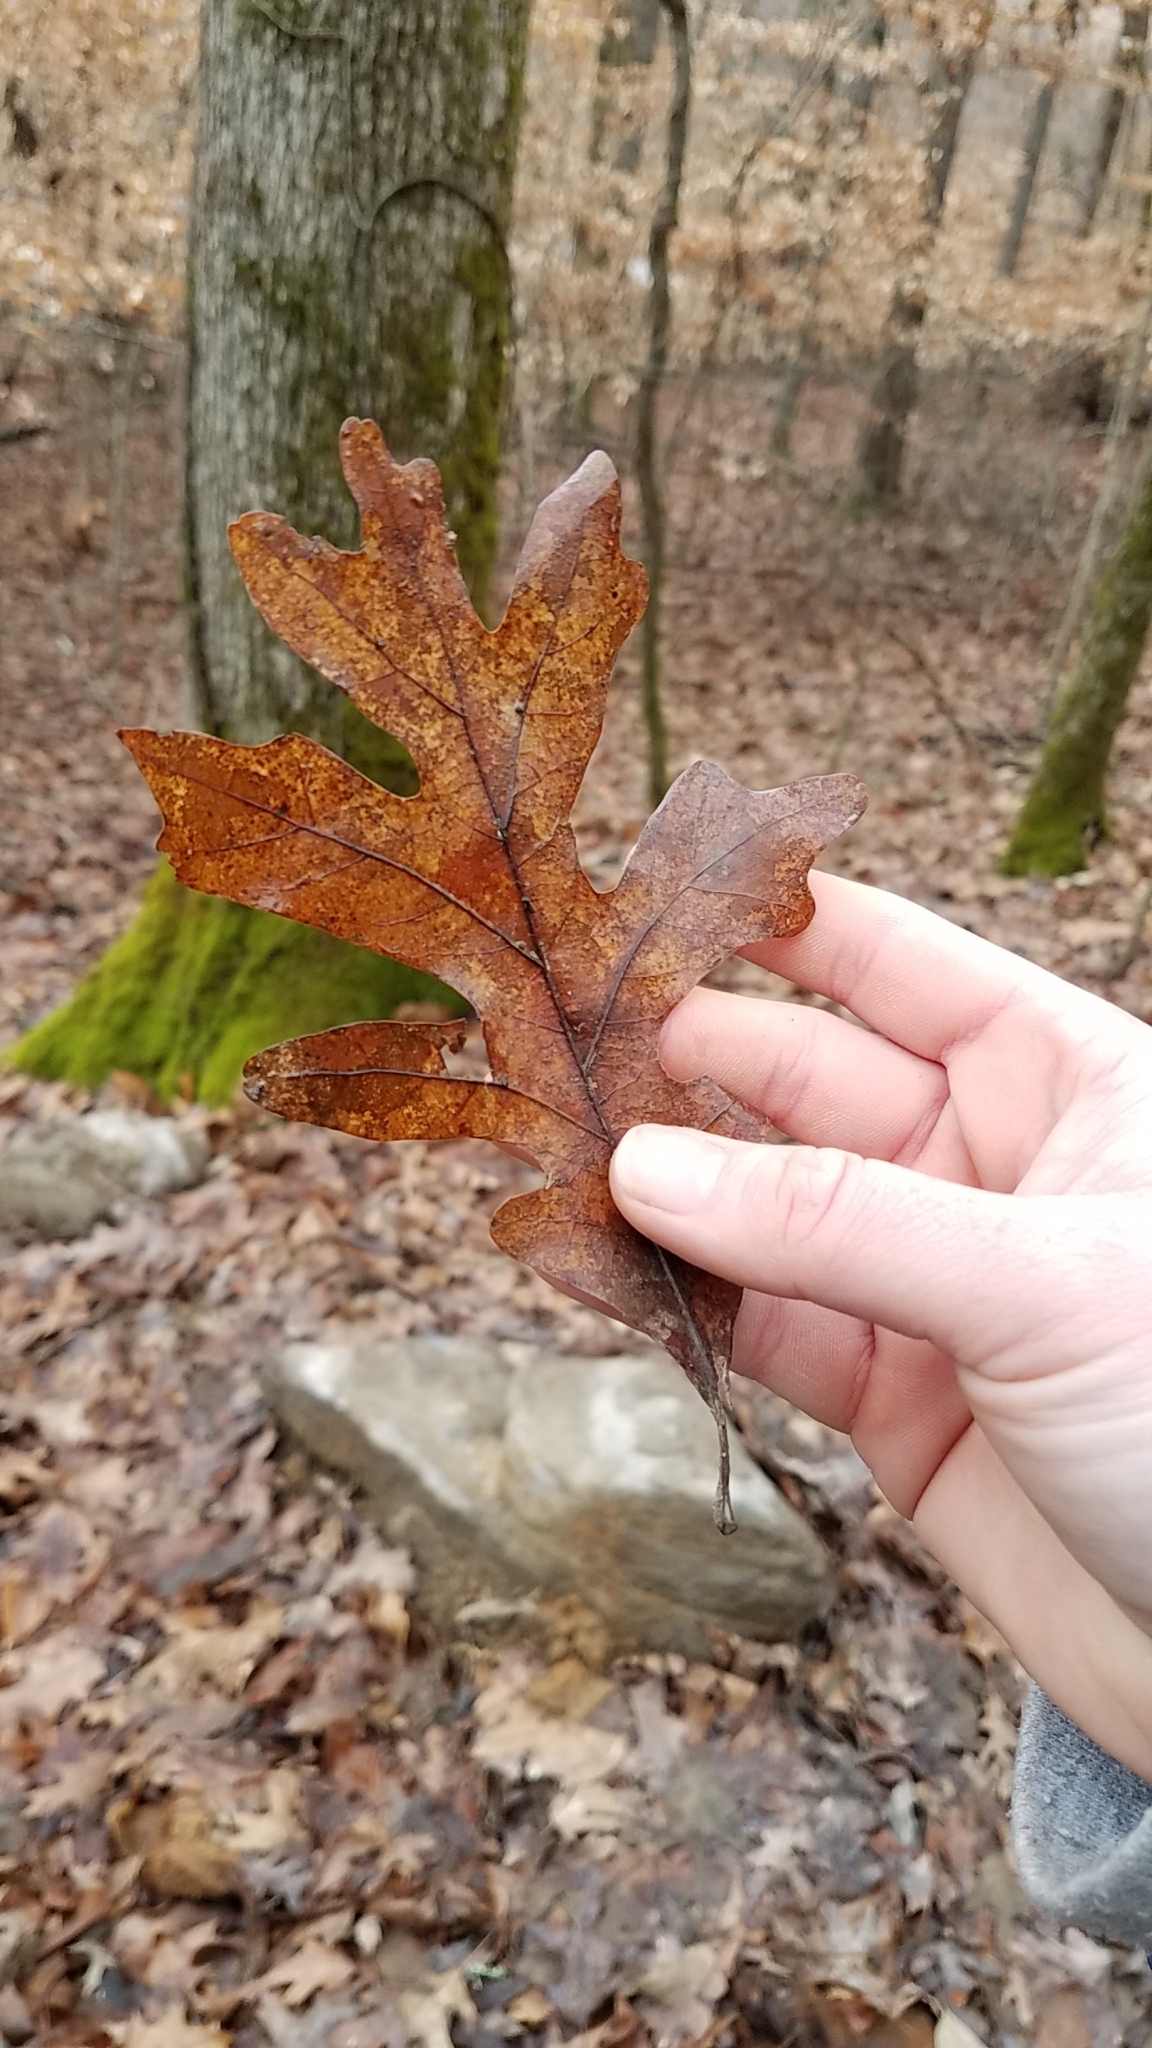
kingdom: Plantae
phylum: Tracheophyta
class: Magnoliopsida
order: Fagales
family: Fagaceae
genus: Quercus
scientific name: Quercus alba
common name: White oak
